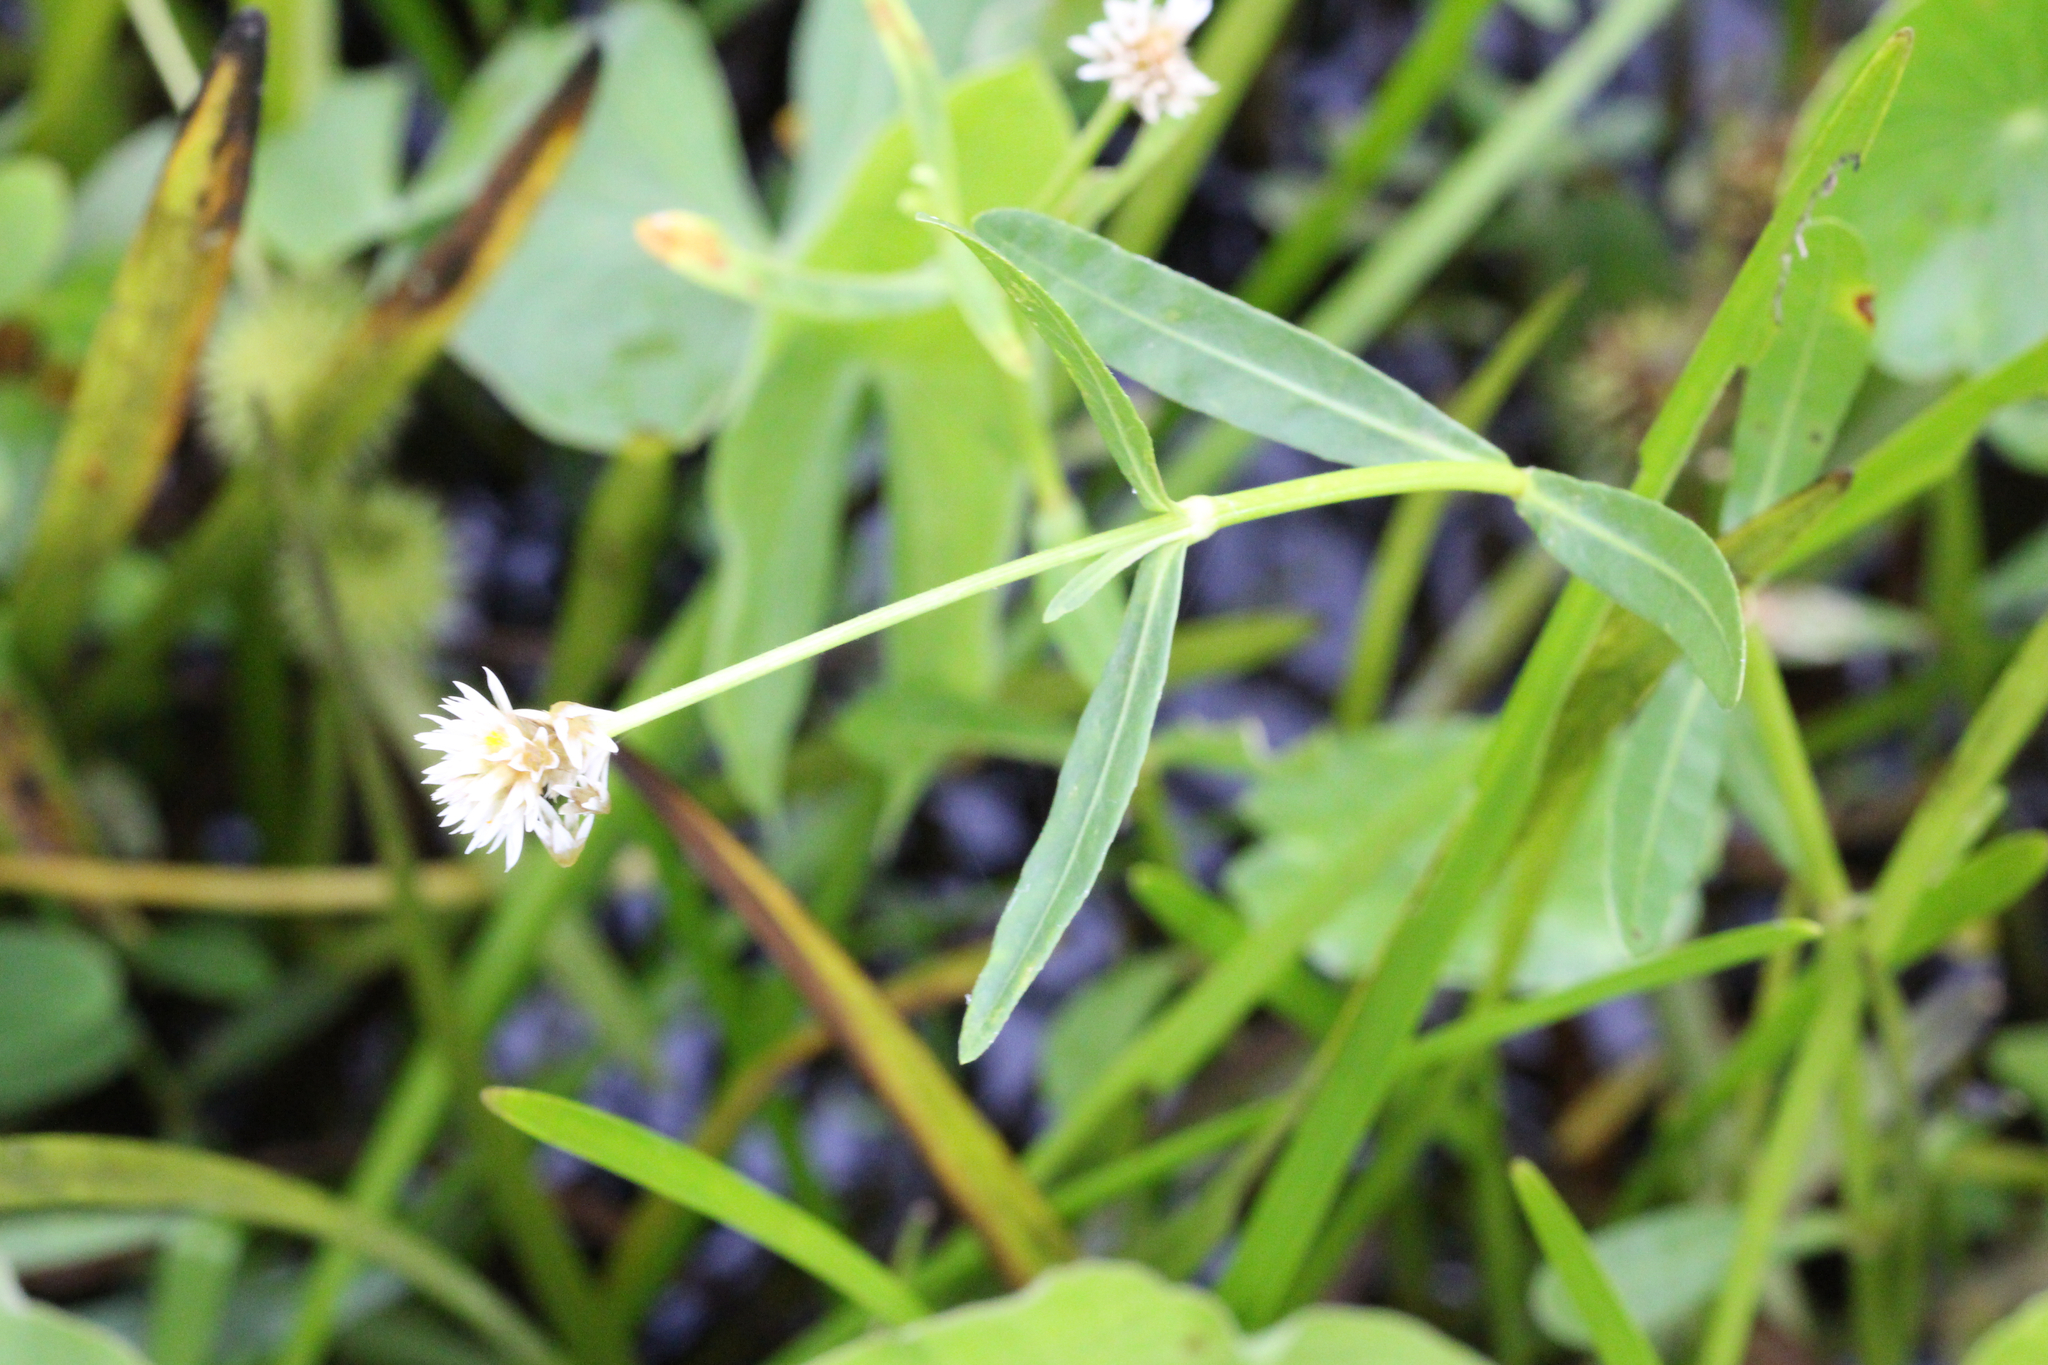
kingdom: Plantae
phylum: Tracheophyta
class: Magnoliopsida
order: Caryophyllales
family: Amaranthaceae
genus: Alternanthera
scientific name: Alternanthera philoxeroides
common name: Alligatorweed
